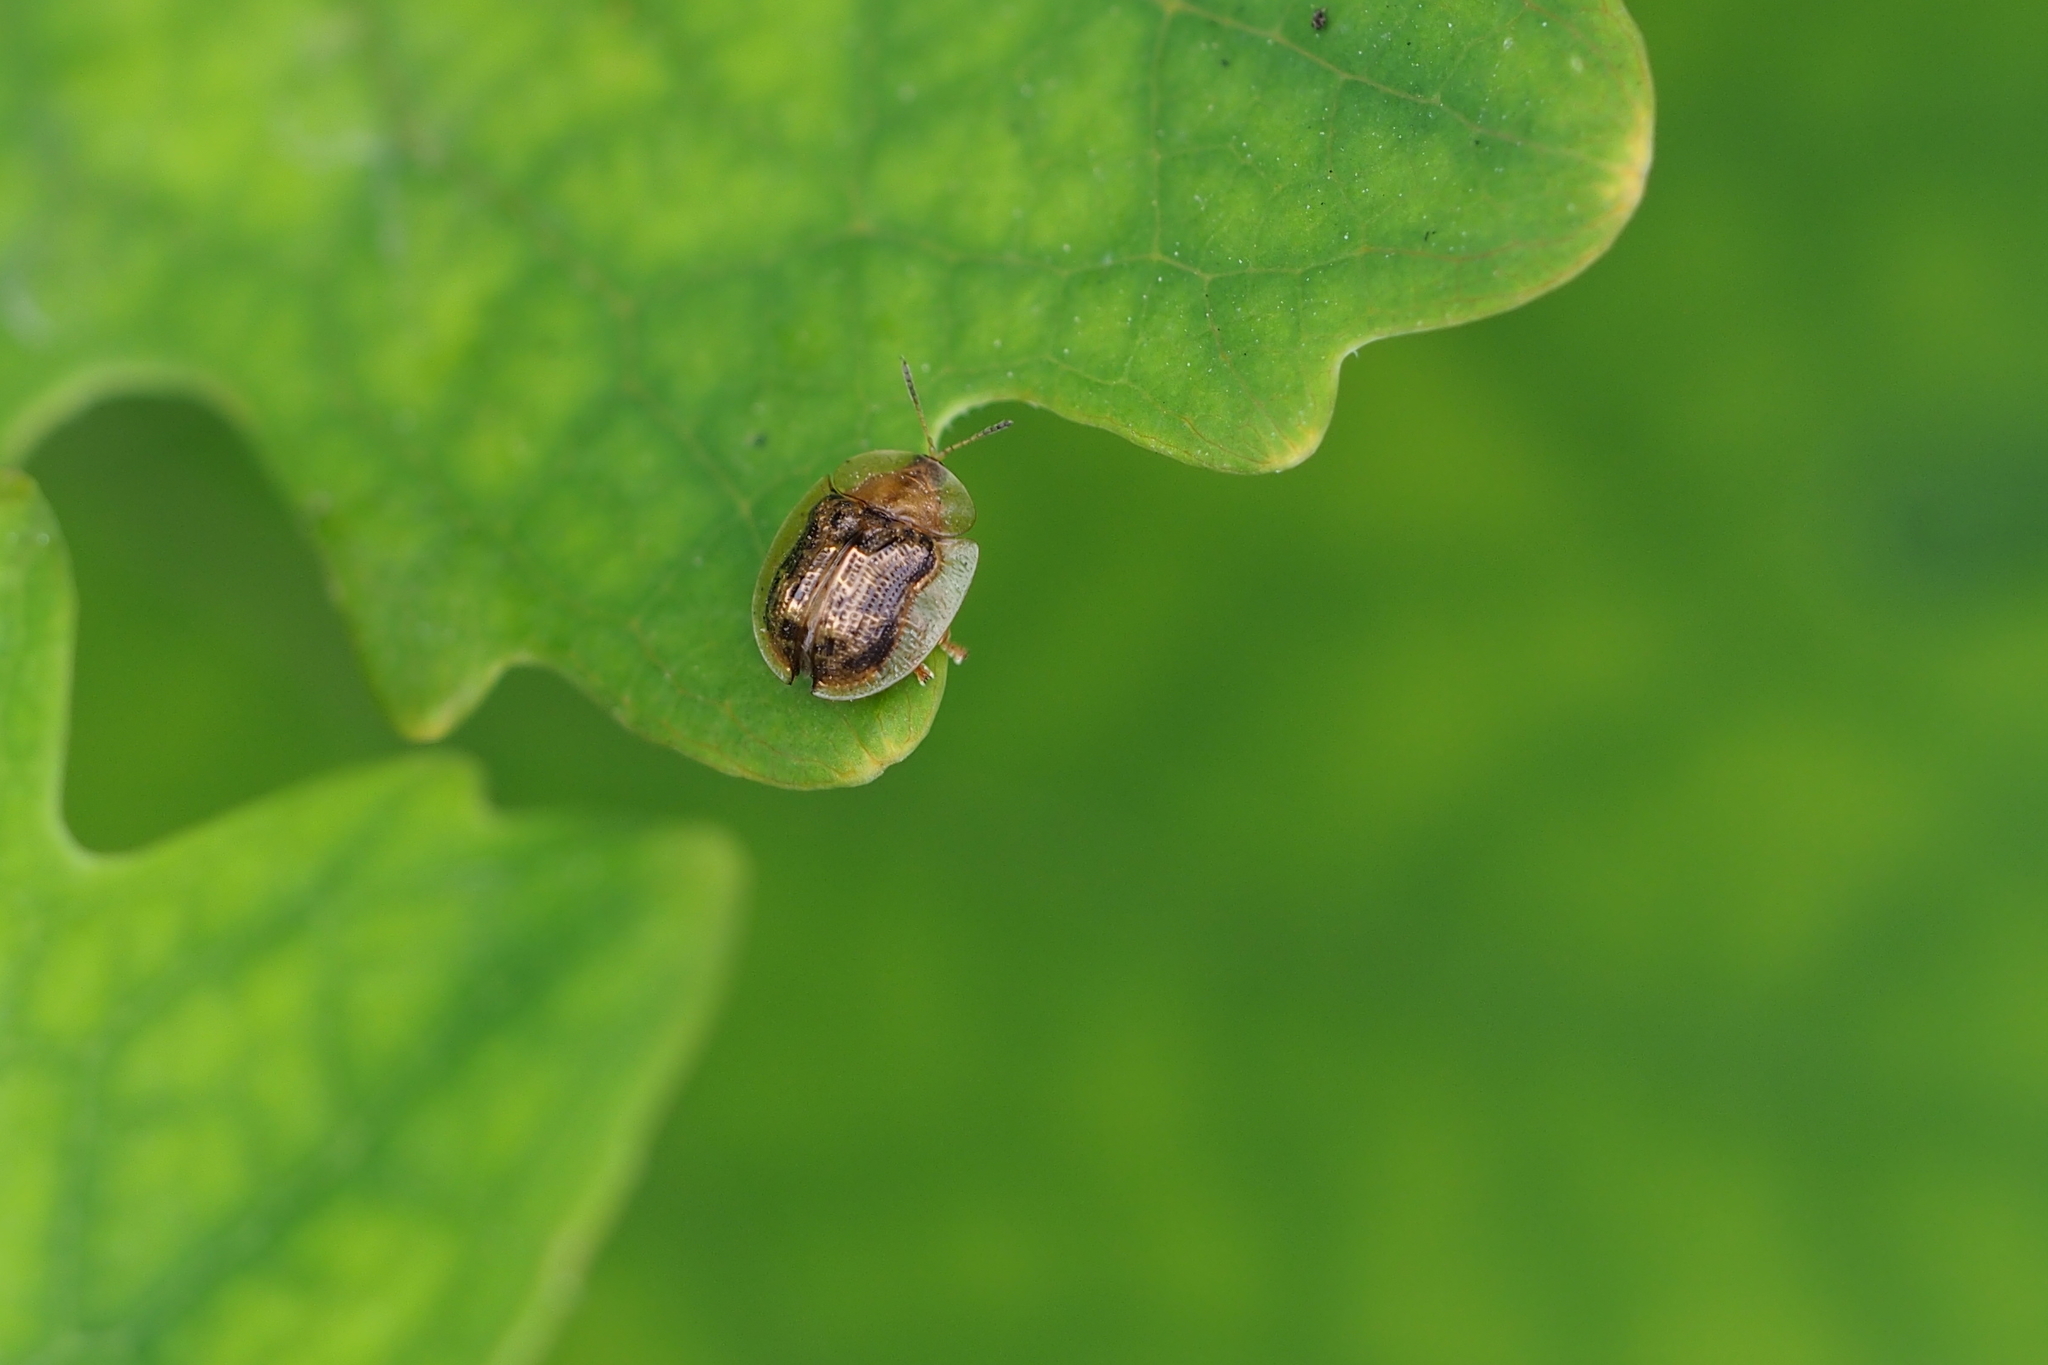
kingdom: Animalia
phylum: Arthropoda
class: Insecta
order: Coleoptera
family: Chrysomelidae
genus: Cassida
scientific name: Cassida japana
